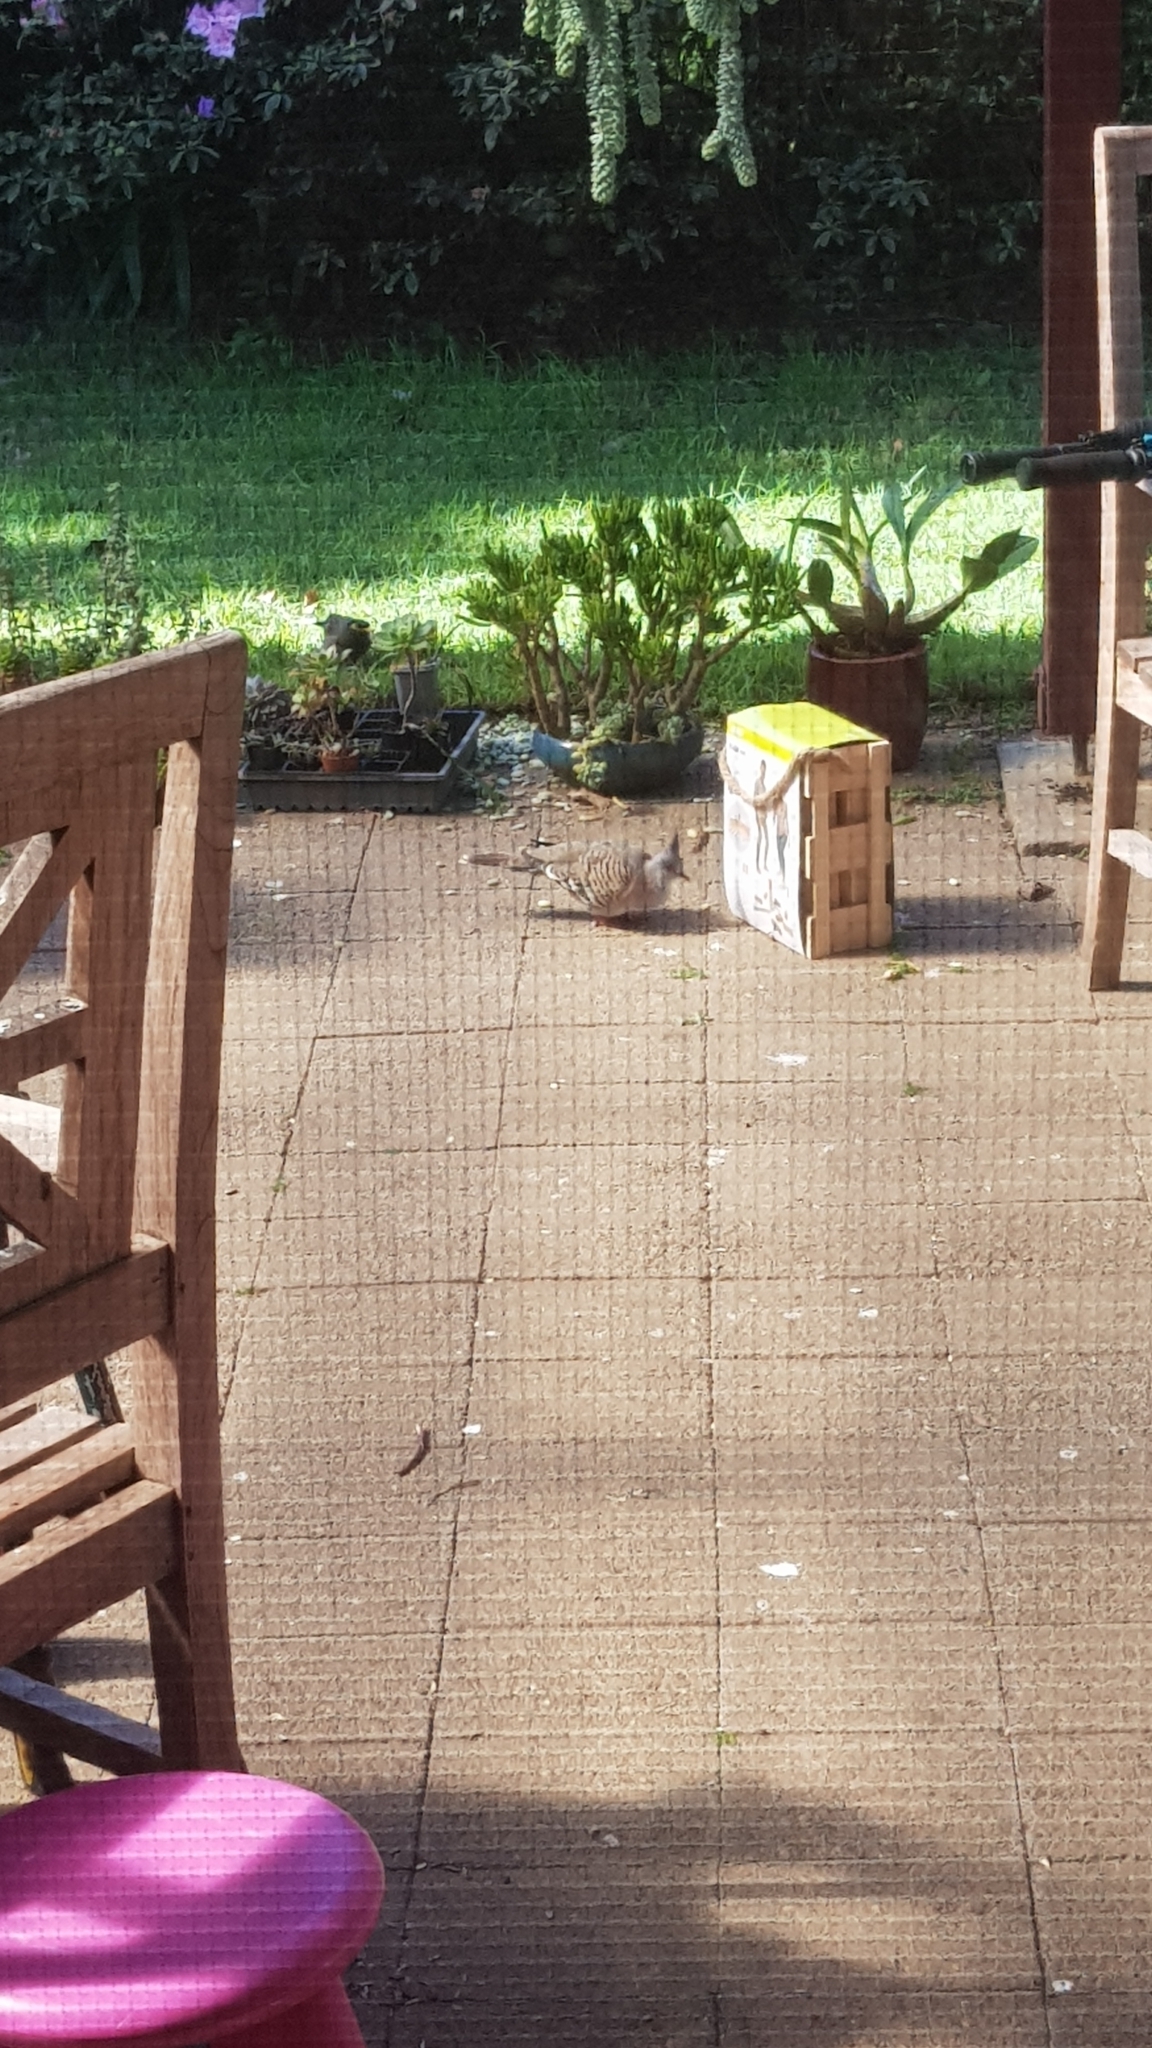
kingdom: Animalia
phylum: Chordata
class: Aves
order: Columbiformes
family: Columbidae
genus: Ocyphaps
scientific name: Ocyphaps lophotes
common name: Crested pigeon
